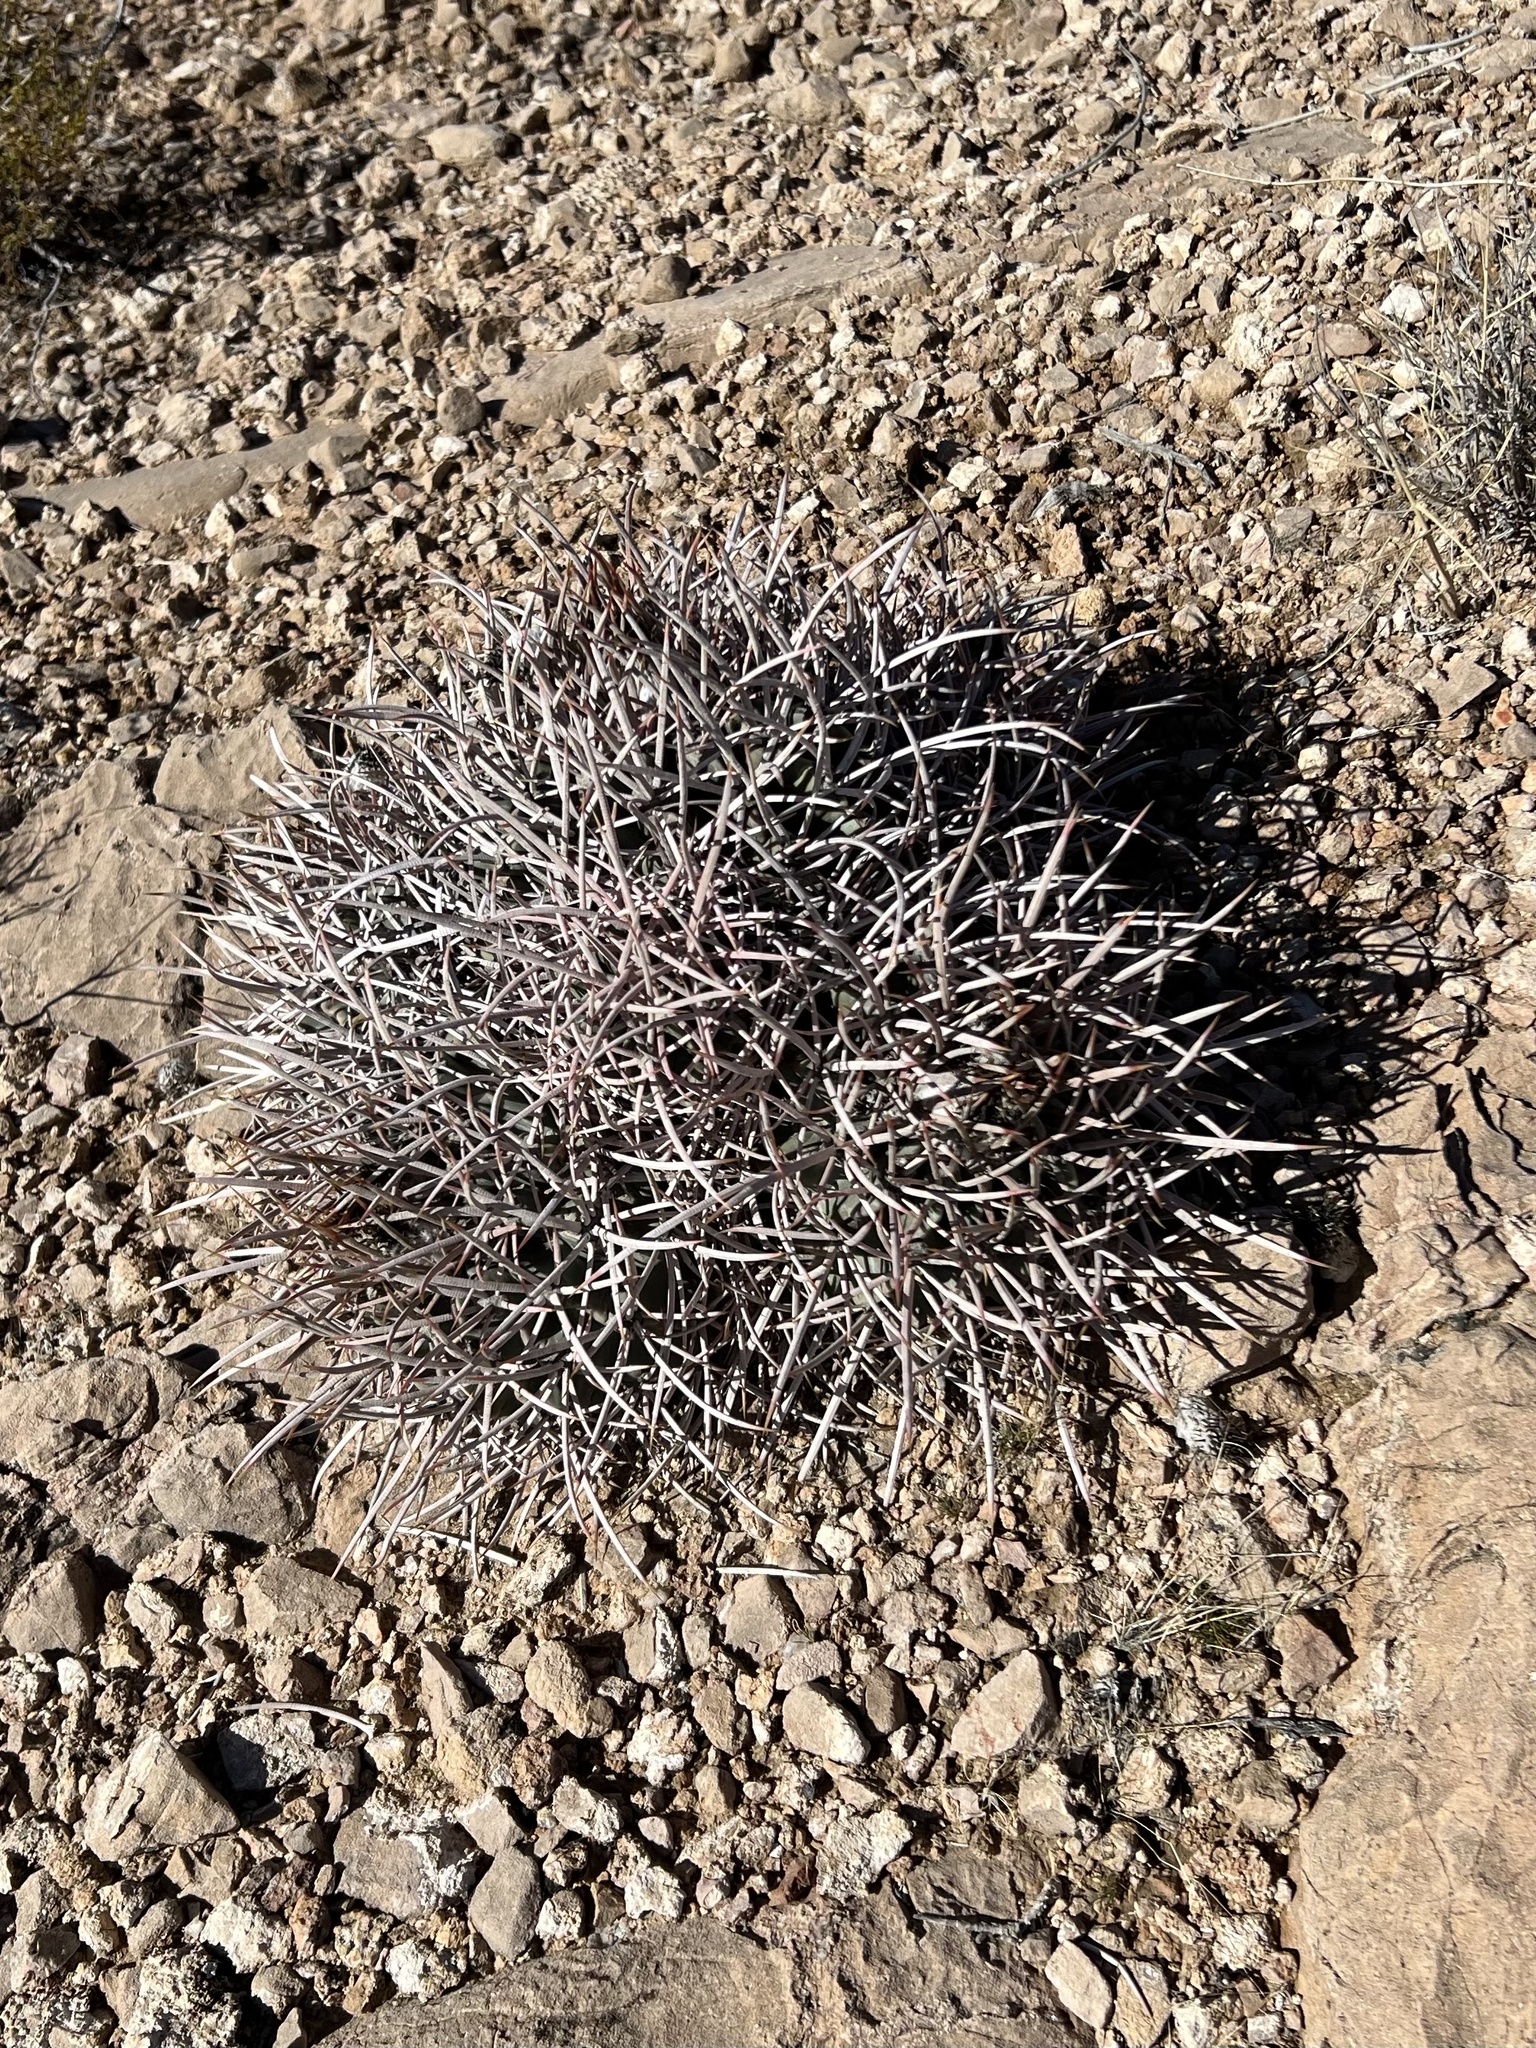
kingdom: Plantae
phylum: Tracheophyta
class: Magnoliopsida
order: Caryophyllales
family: Cactaceae
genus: Echinocactus
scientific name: Echinocactus polycephalus
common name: Cottontop cactus
